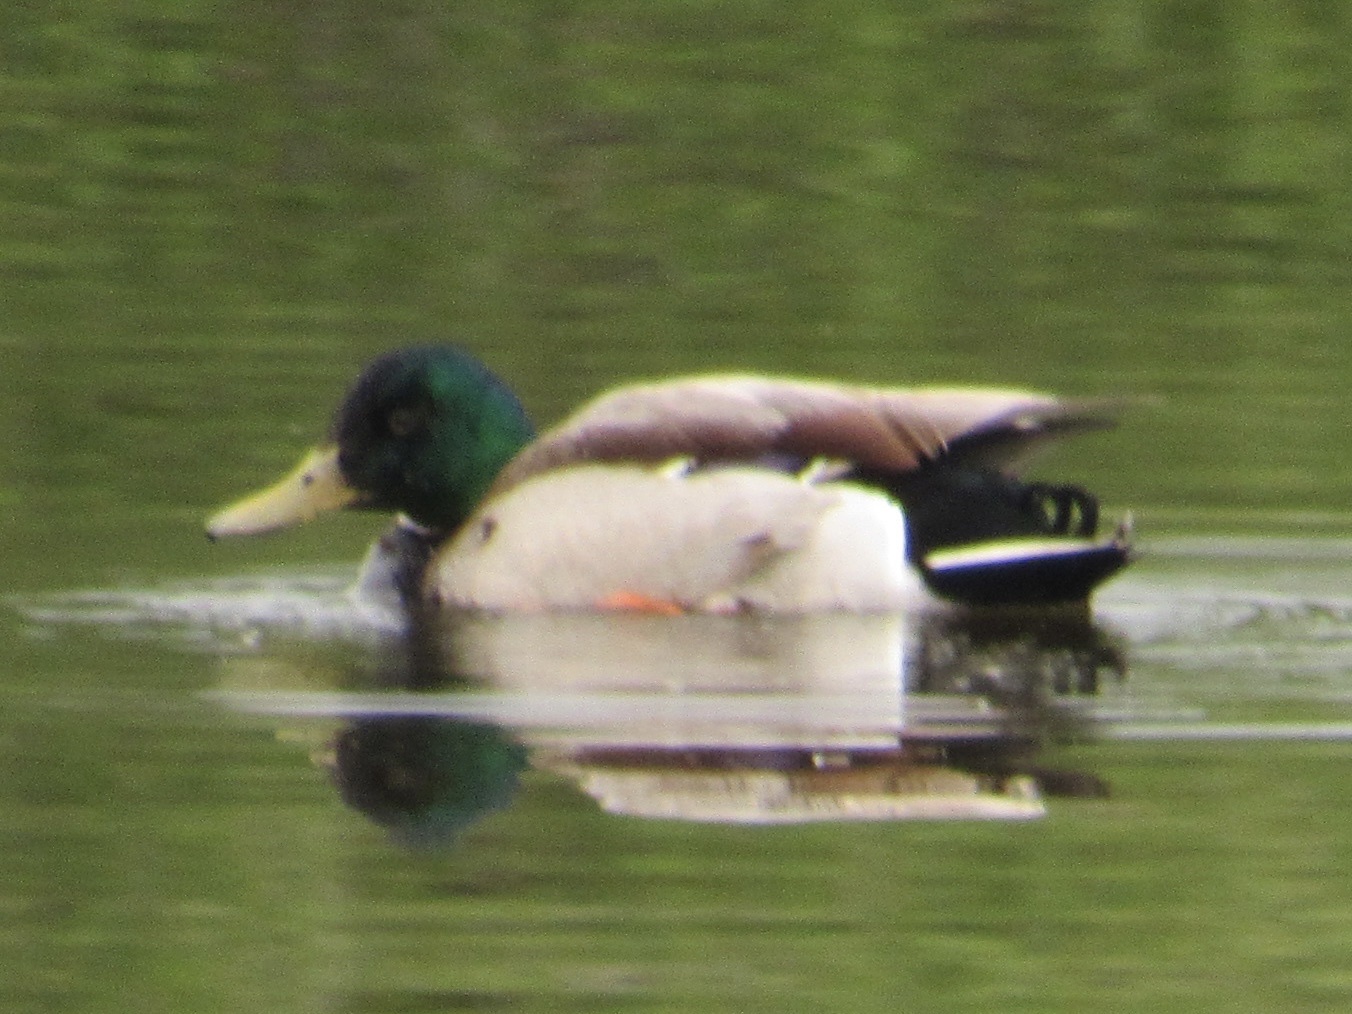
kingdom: Animalia
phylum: Chordata
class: Aves
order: Anseriformes
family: Anatidae
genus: Anas
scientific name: Anas platyrhynchos
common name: Mallard
